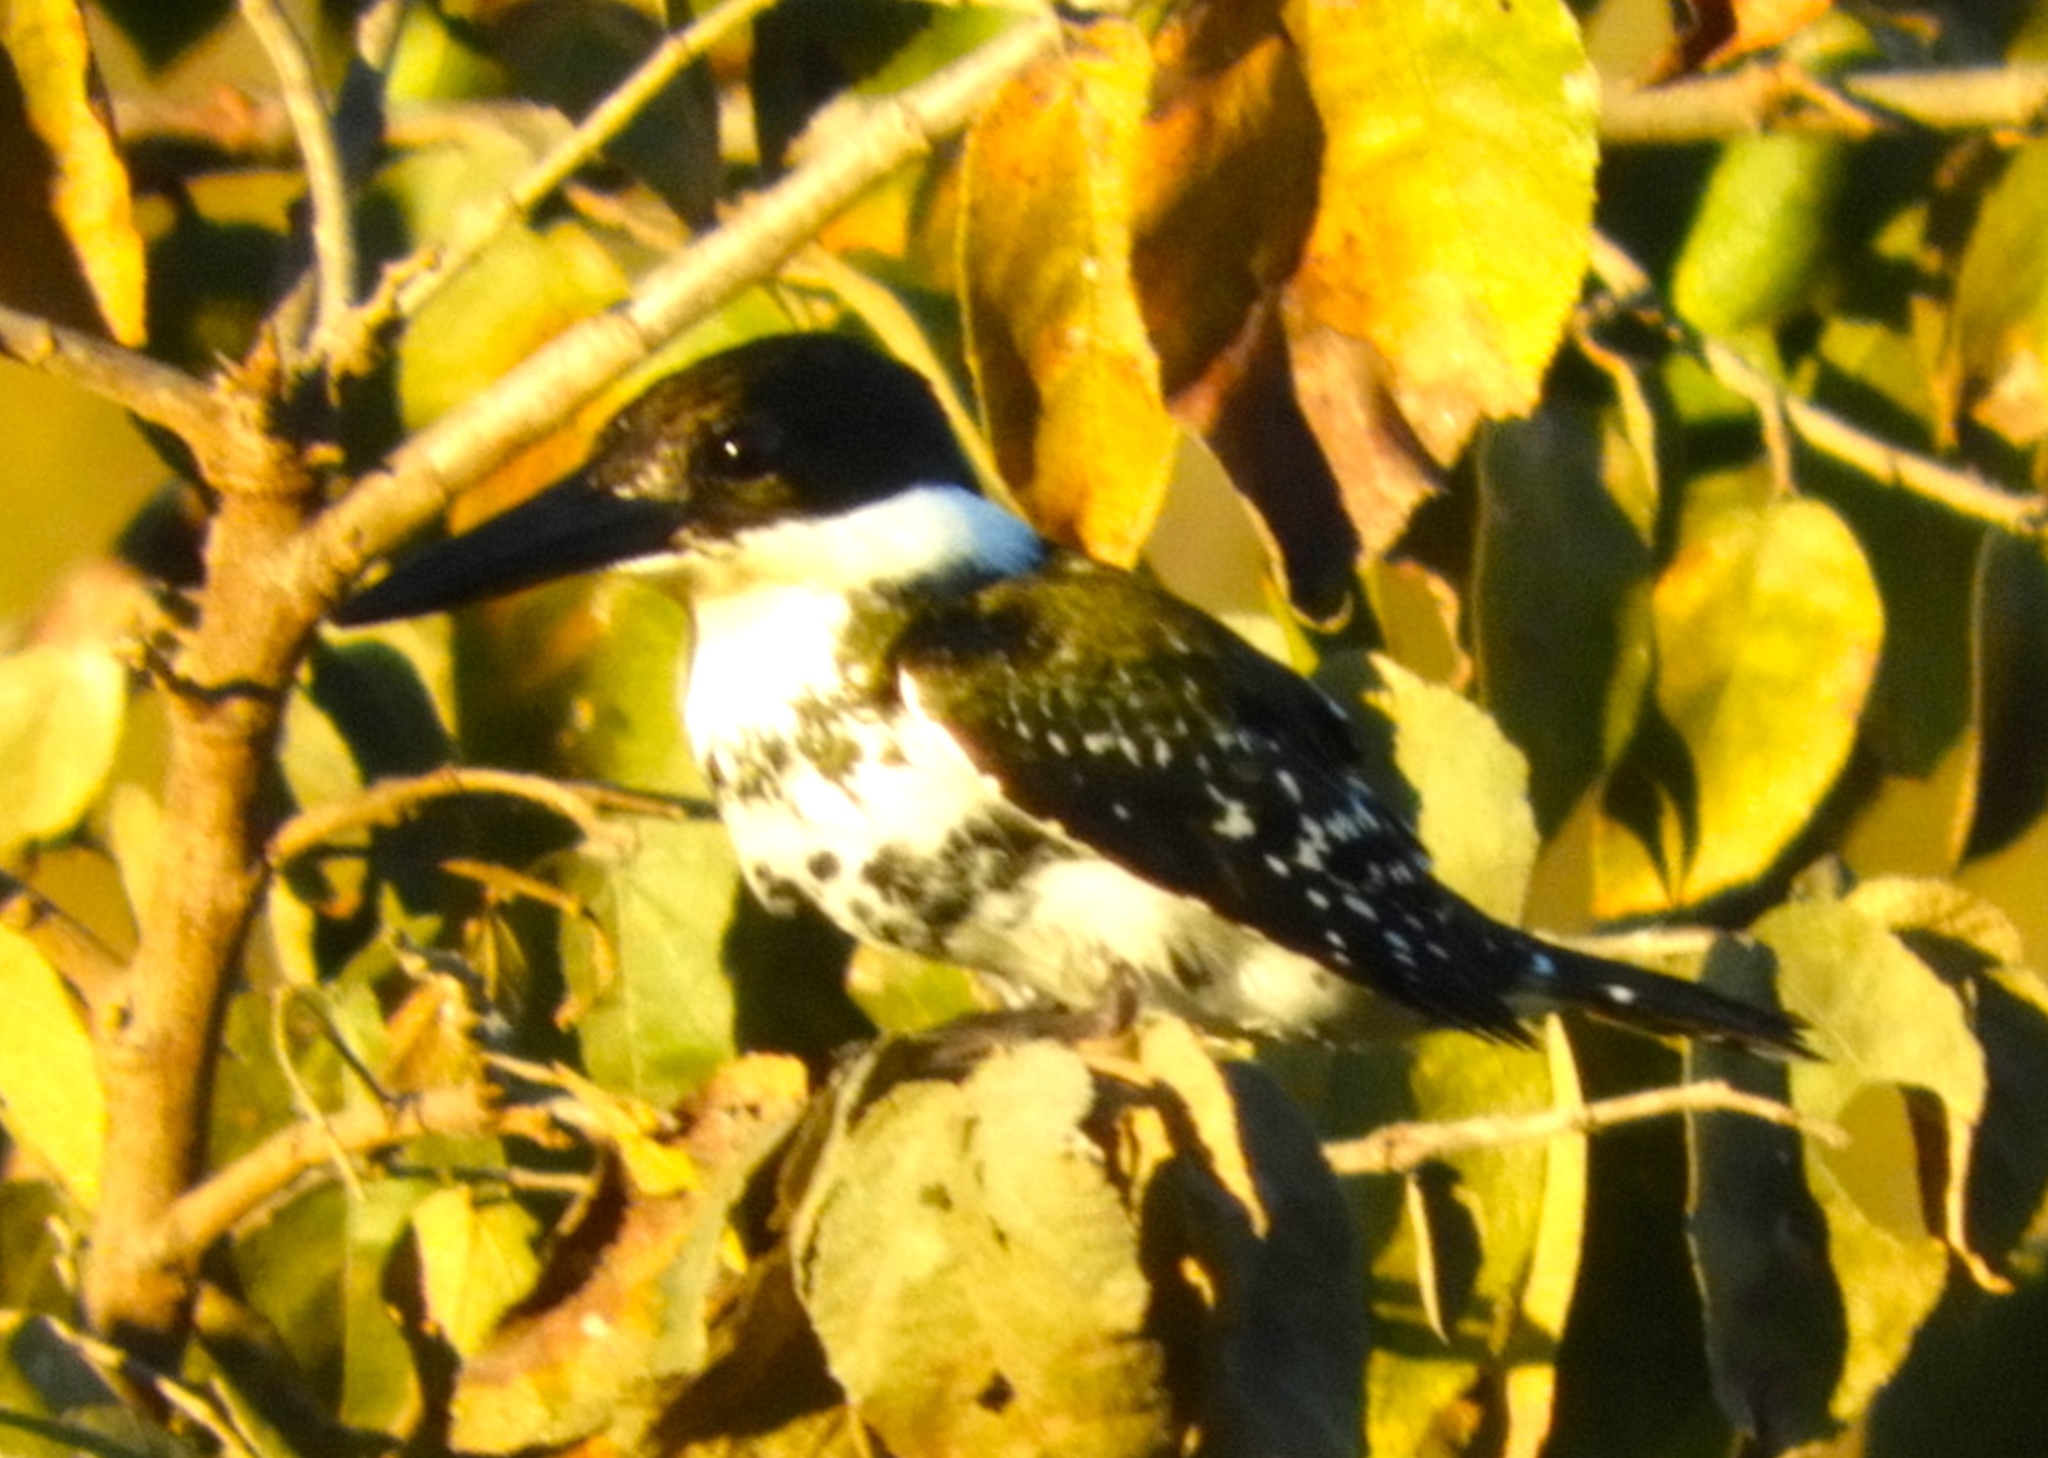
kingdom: Animalia
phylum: Chordata
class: Aves
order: Coraciiformes
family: Alcedinidae
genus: Chloroceryle
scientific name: Chloroceryle americana
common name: Green kingfisher
